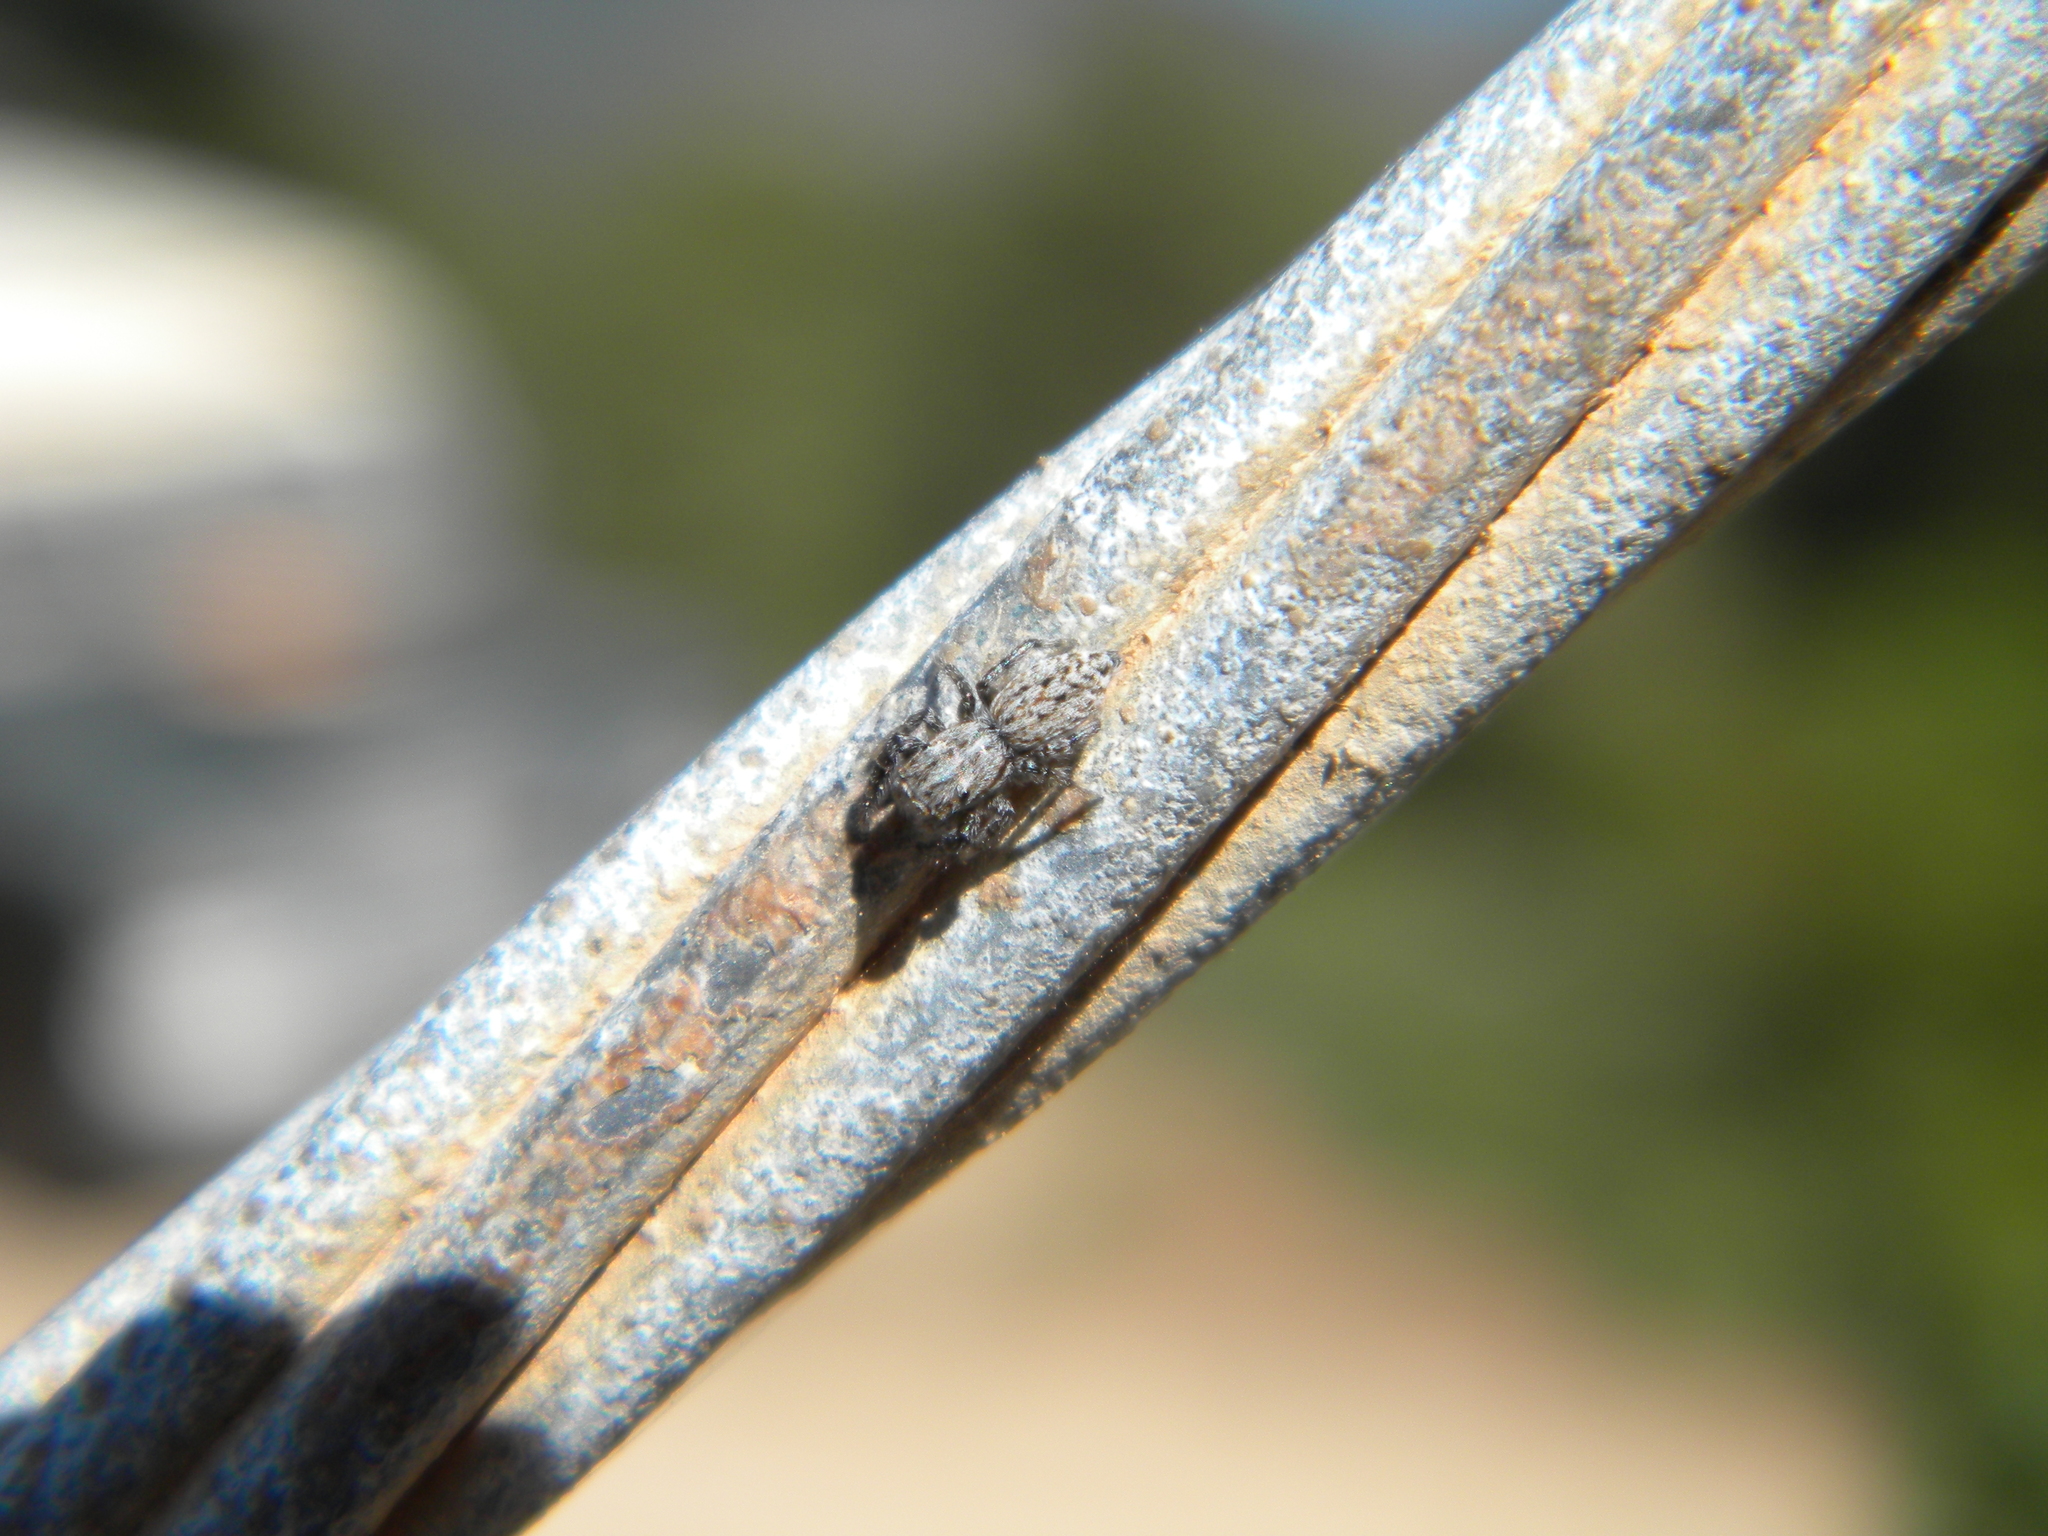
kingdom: Animalia
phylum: Arthropoda
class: Arachnida
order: Araneae
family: Salticidae
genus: Pseudicius
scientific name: Pseudicius
